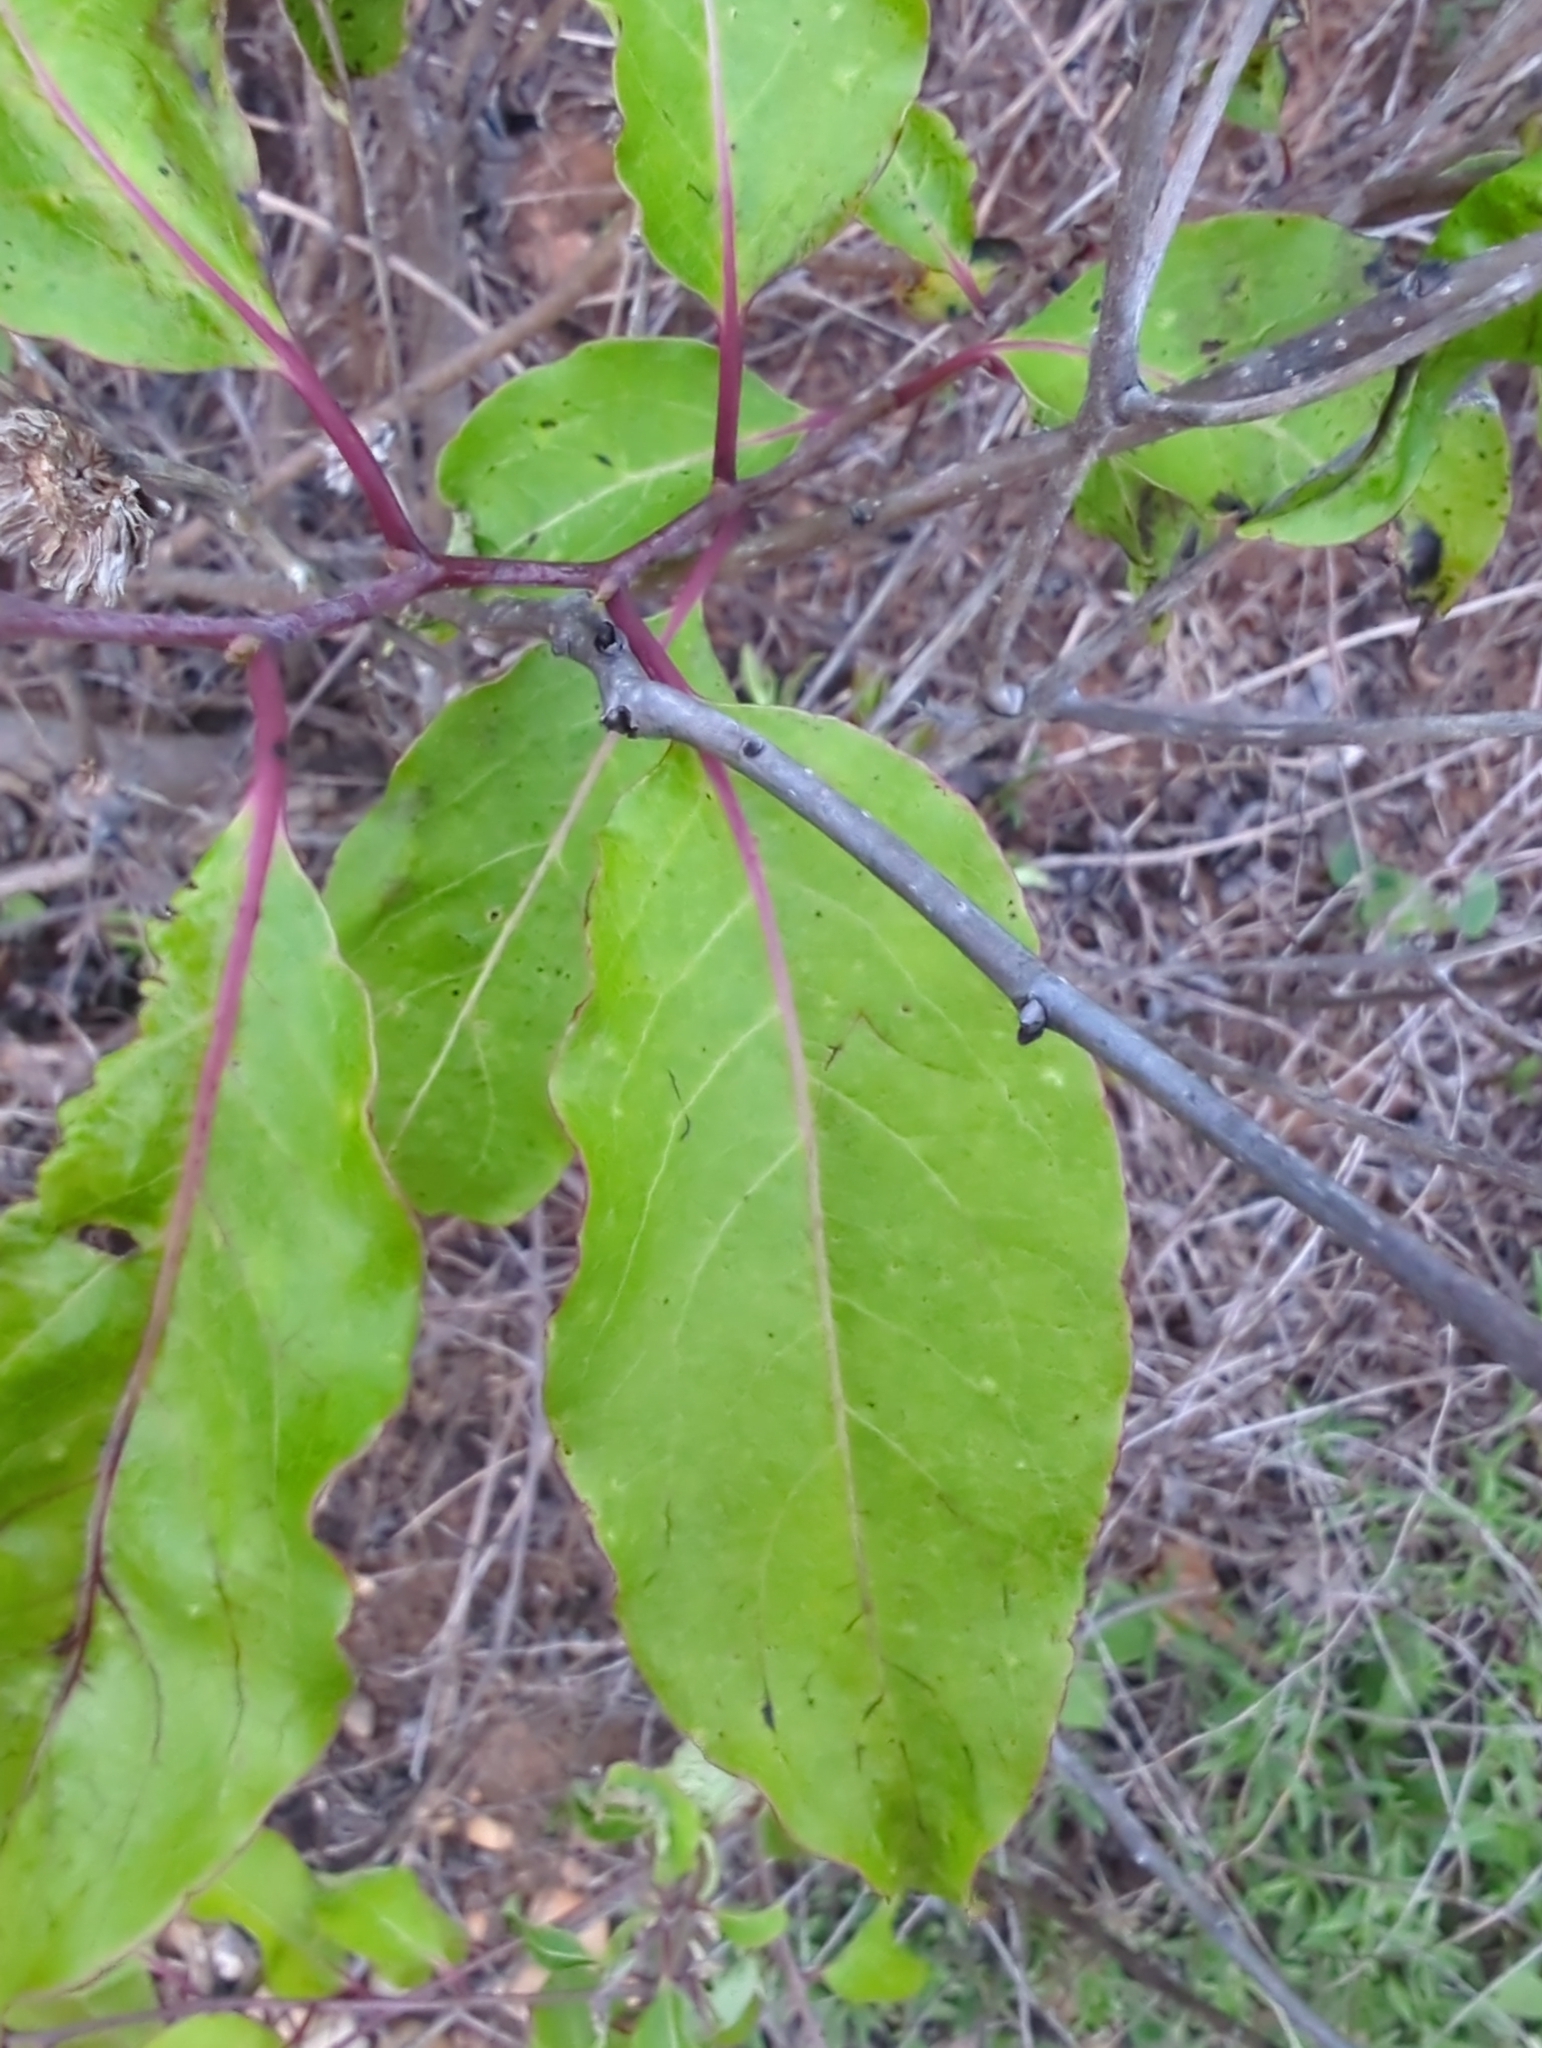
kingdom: Plantae
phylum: Tracheophyta
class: Magnoliopsida
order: Ericales
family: Ebenaceae
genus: Diospyros
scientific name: Diospyros virginiana
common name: Persimmon
